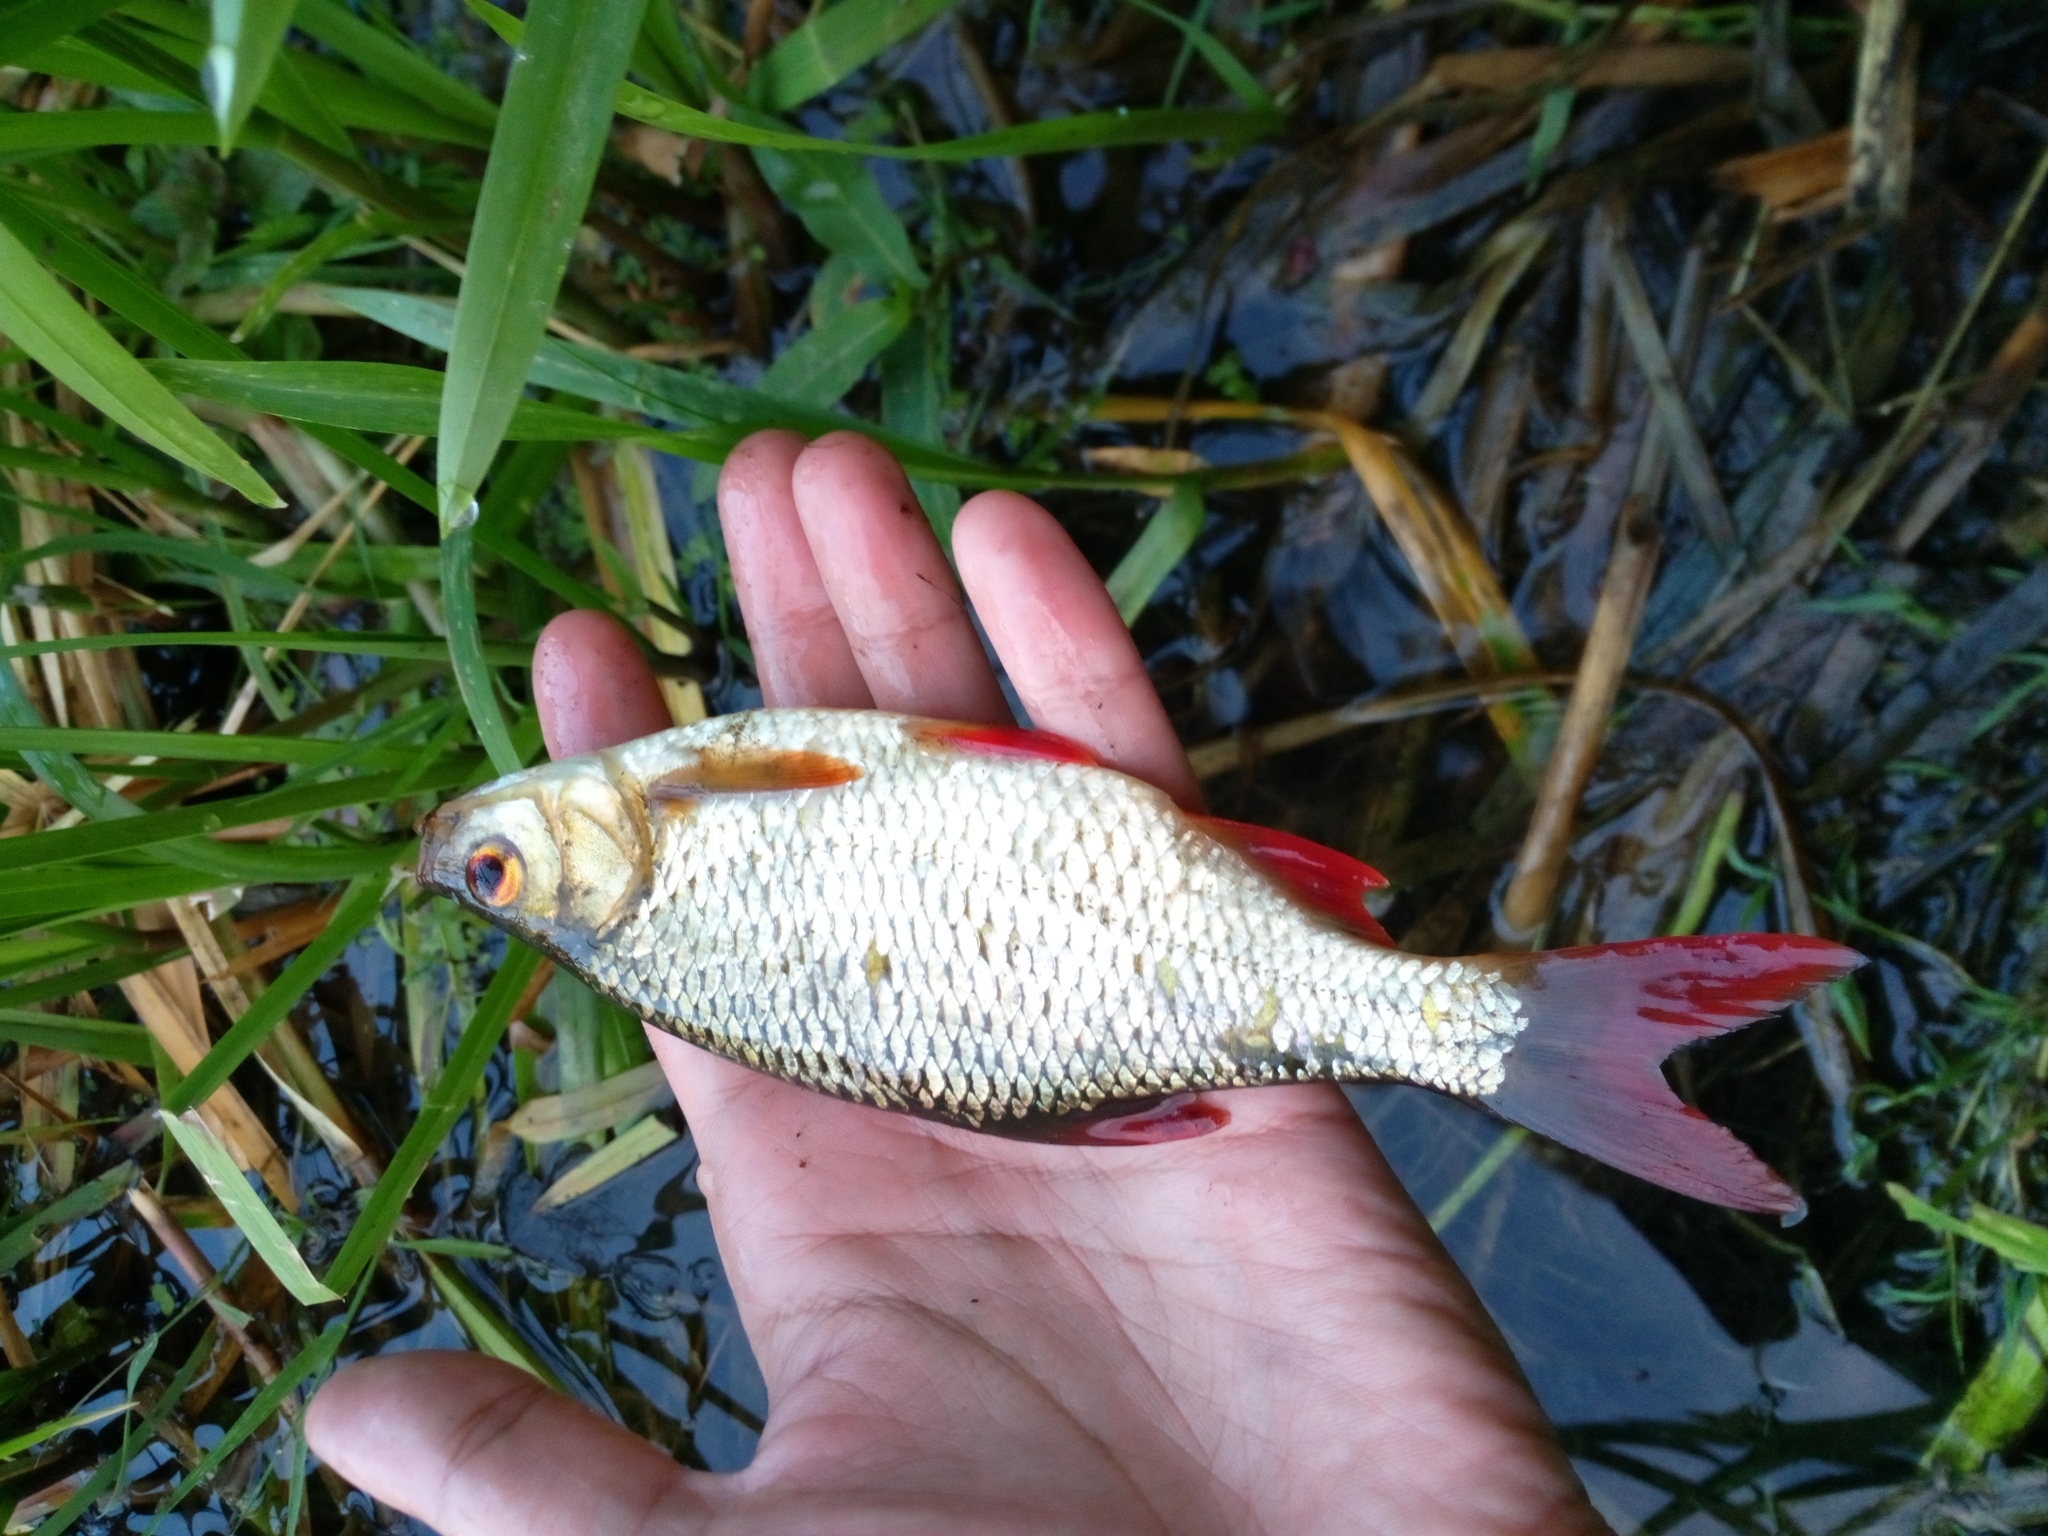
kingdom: Animalia
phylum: Chordata
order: Cypriniformes
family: Cyprinidae
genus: Scardinius
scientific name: Scardinius erythrophthalmus
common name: Rudd
